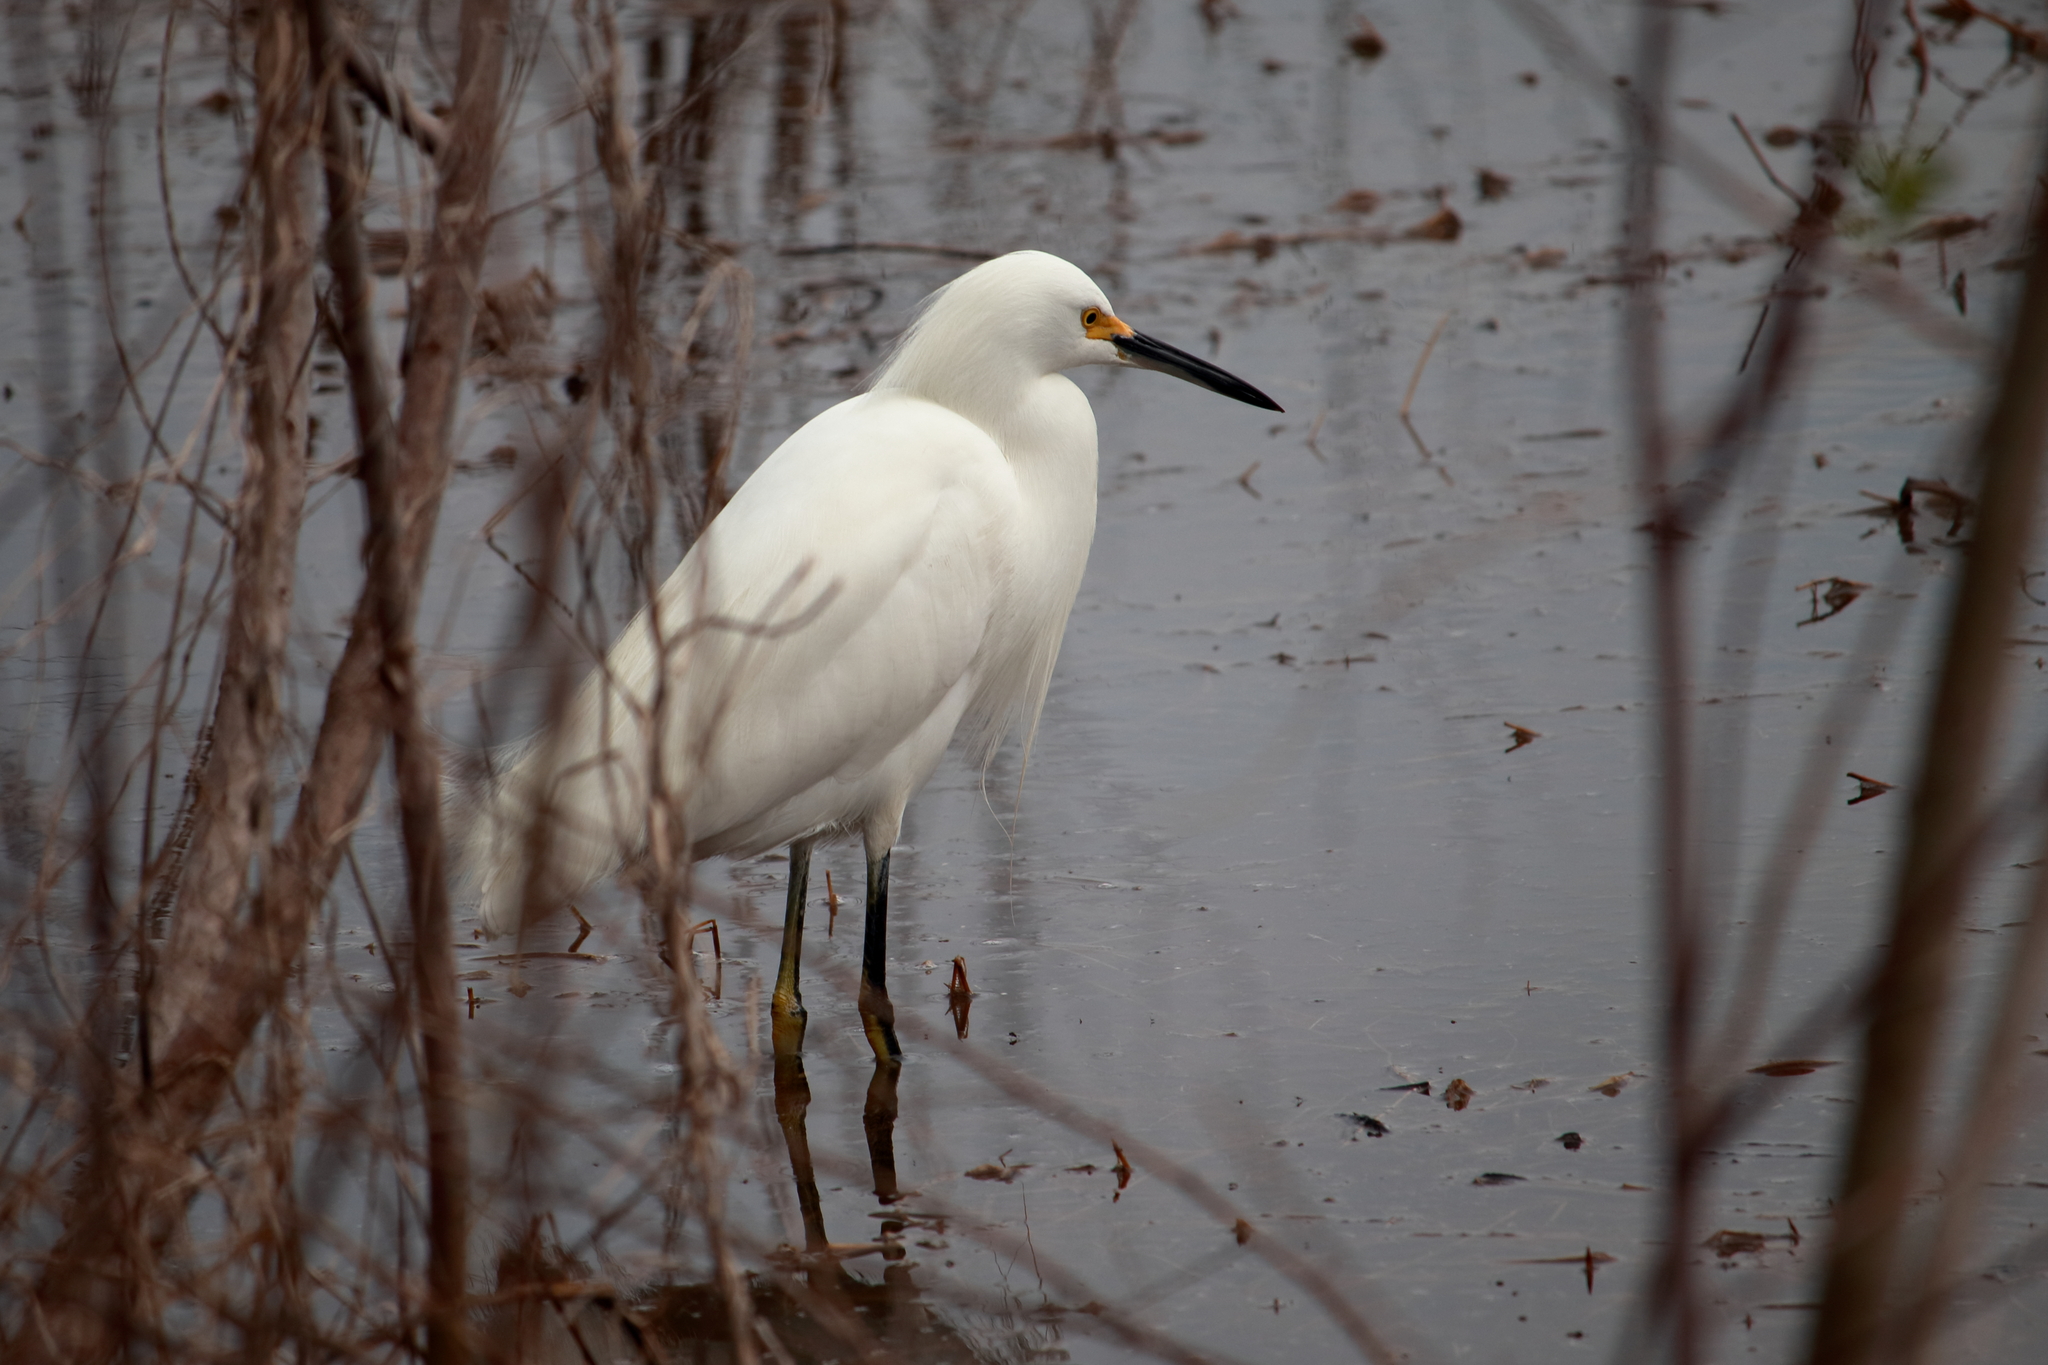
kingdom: Animalia
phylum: Chordata
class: Aves
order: Pelecaniformes
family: Ardeidae
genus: Egretta
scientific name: Egretta thula
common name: Snowy egret
